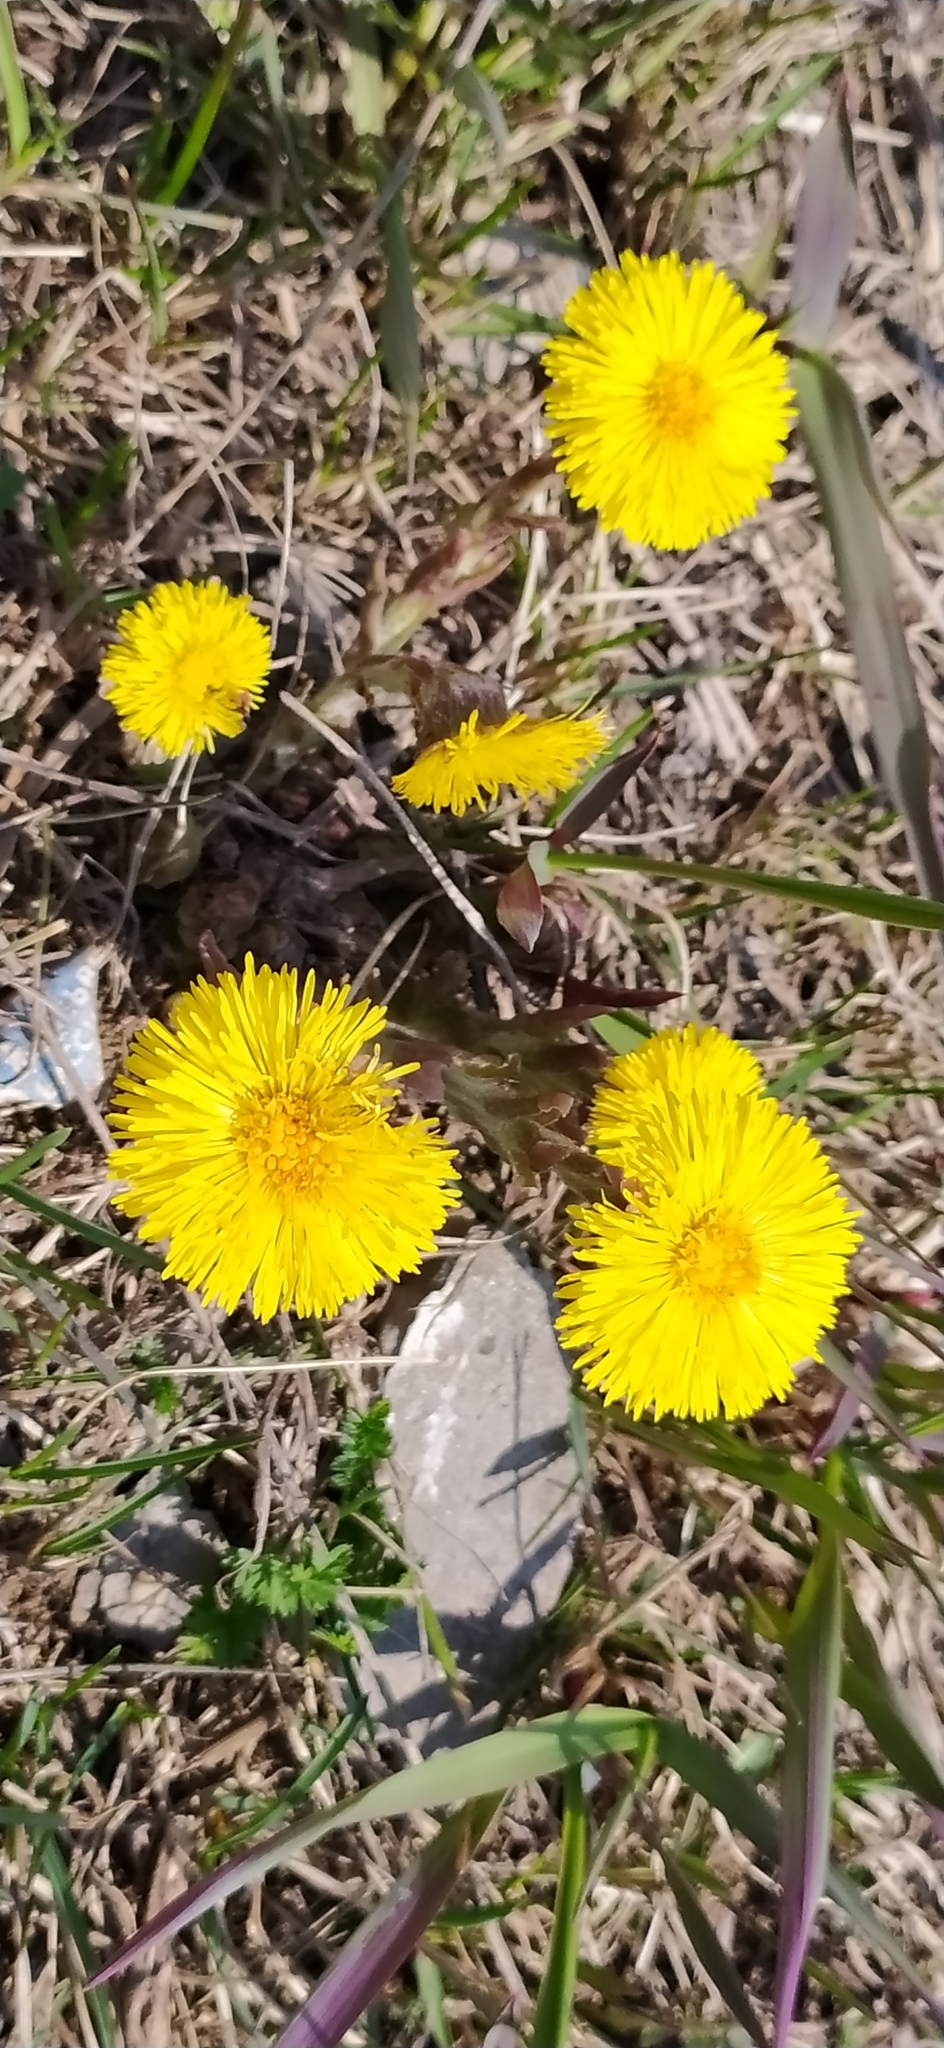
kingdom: Plantae
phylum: Tracheophyta
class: Magnoliopsida
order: Asterales
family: Asteraceae
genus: Tussilago
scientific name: Tussilago farfara
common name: Coltsfoot
